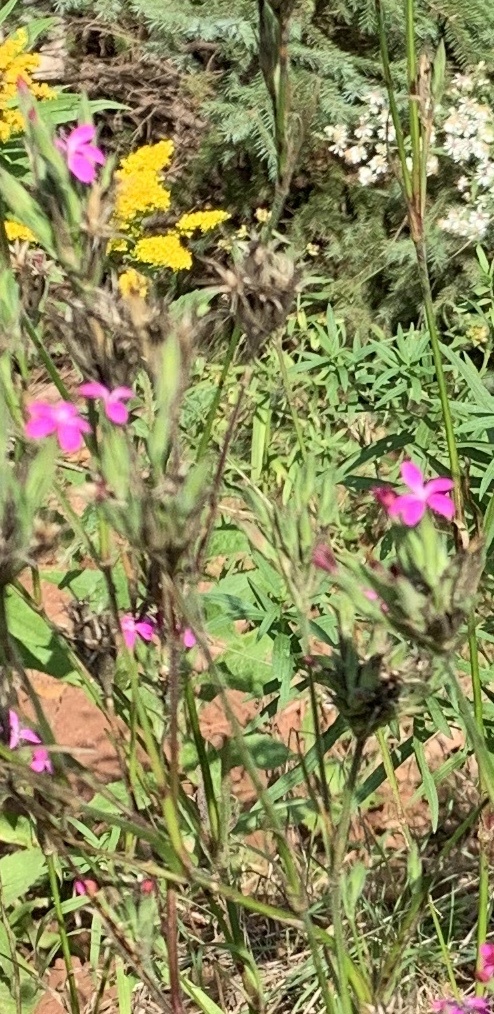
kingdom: Plantae
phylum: Tracheophyta
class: Magnoliopsida
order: Caryophyllales
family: Caryophyllaceae
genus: Dianthus
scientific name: Dianthus armeria
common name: Deptford pink
